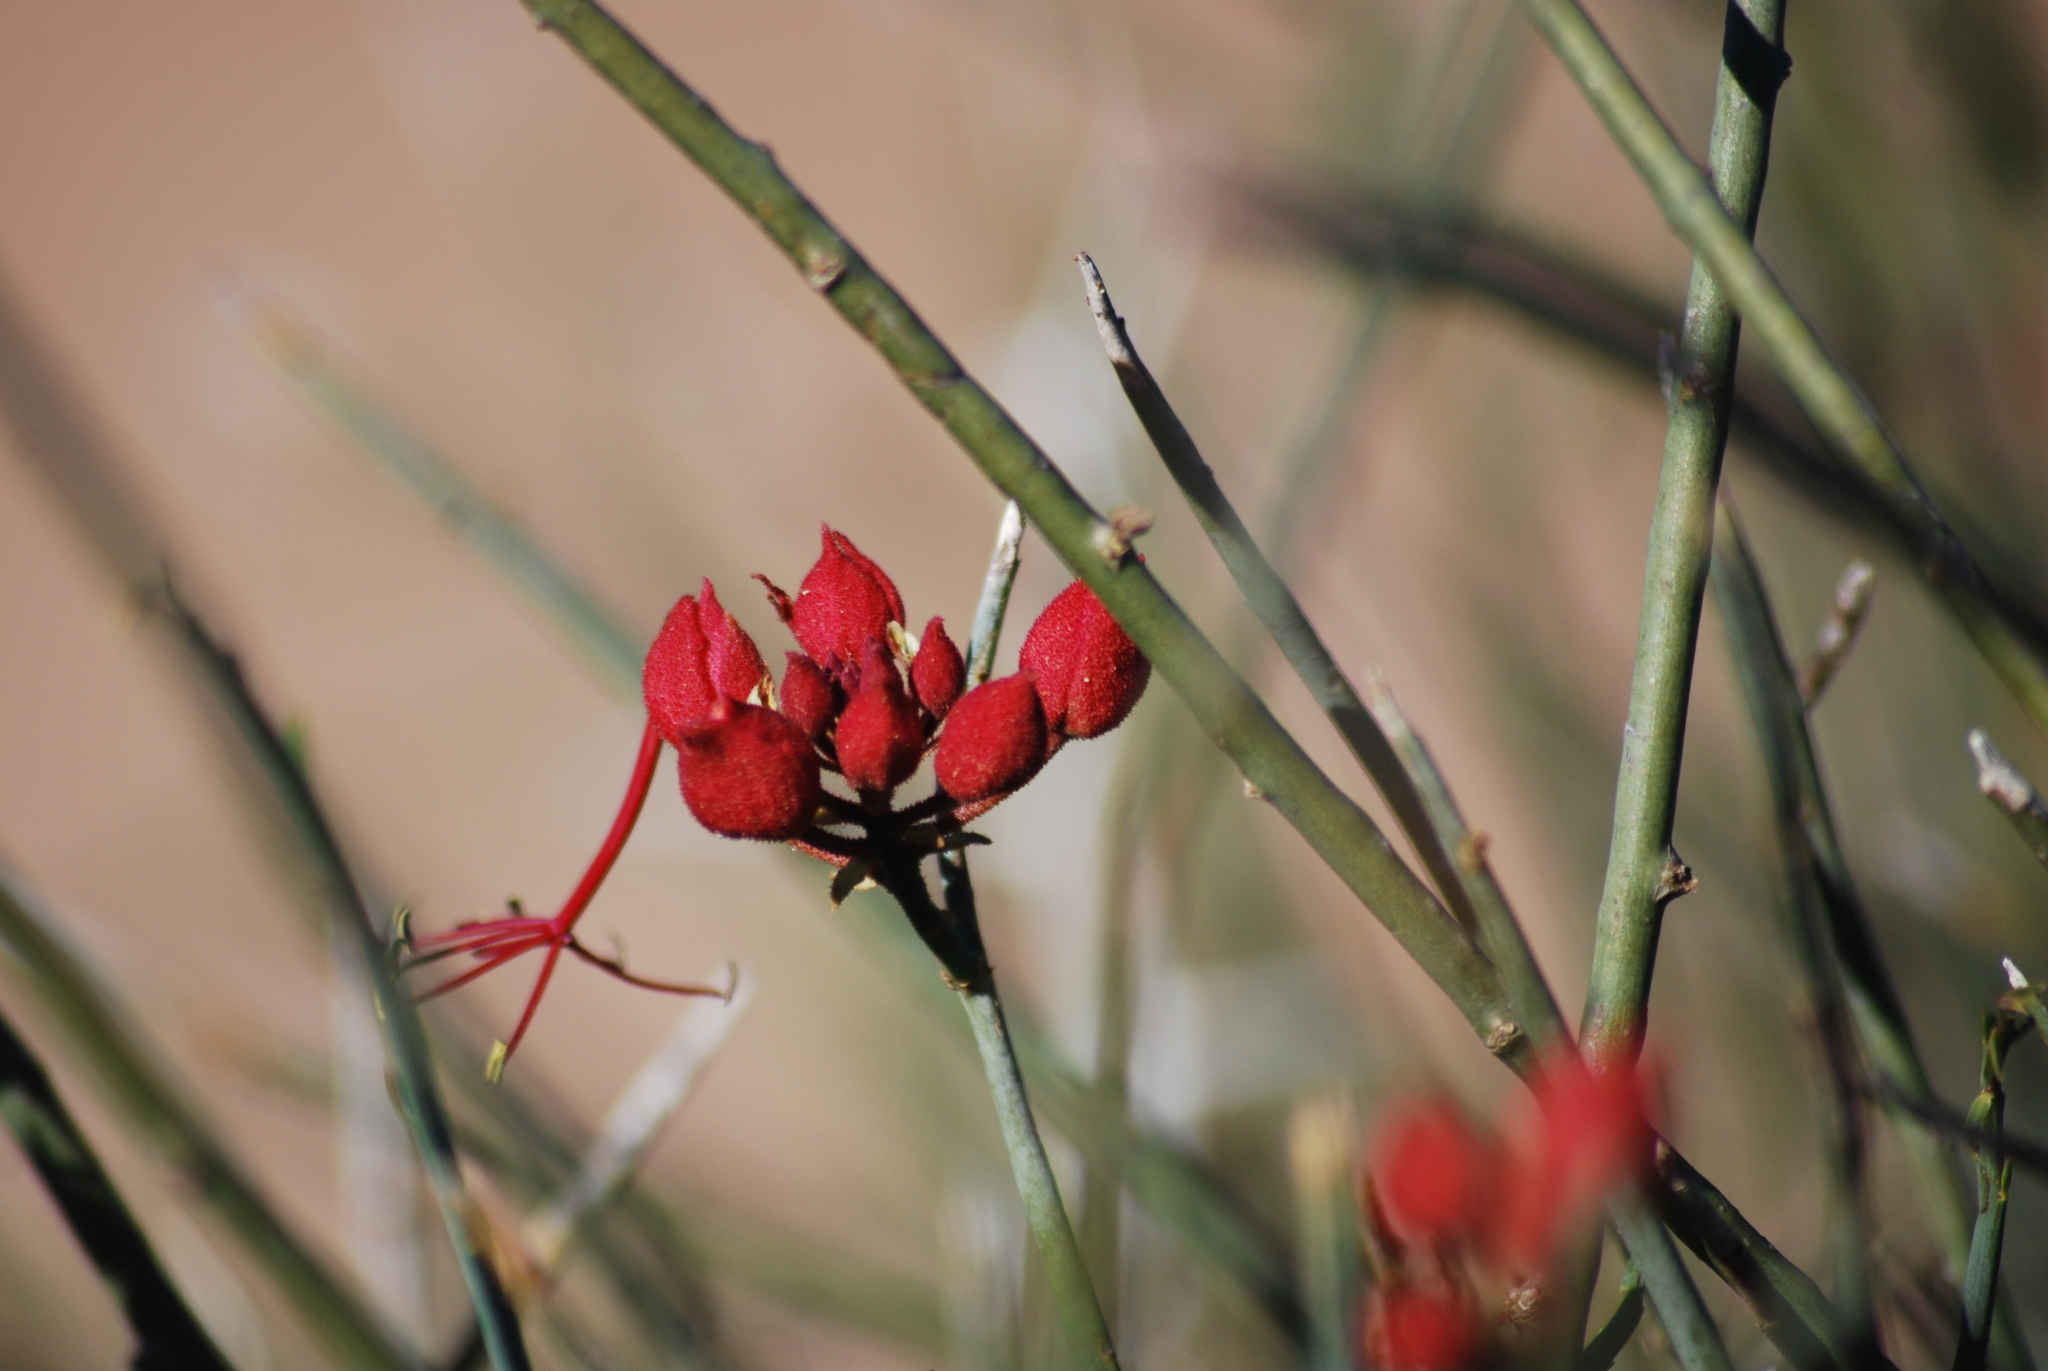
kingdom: Plantae
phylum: Tracheophyta
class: Magnoliopsida
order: Brassicales
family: Capparaceae
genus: Cadaba
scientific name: Cadaba aphylla
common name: Black storm
